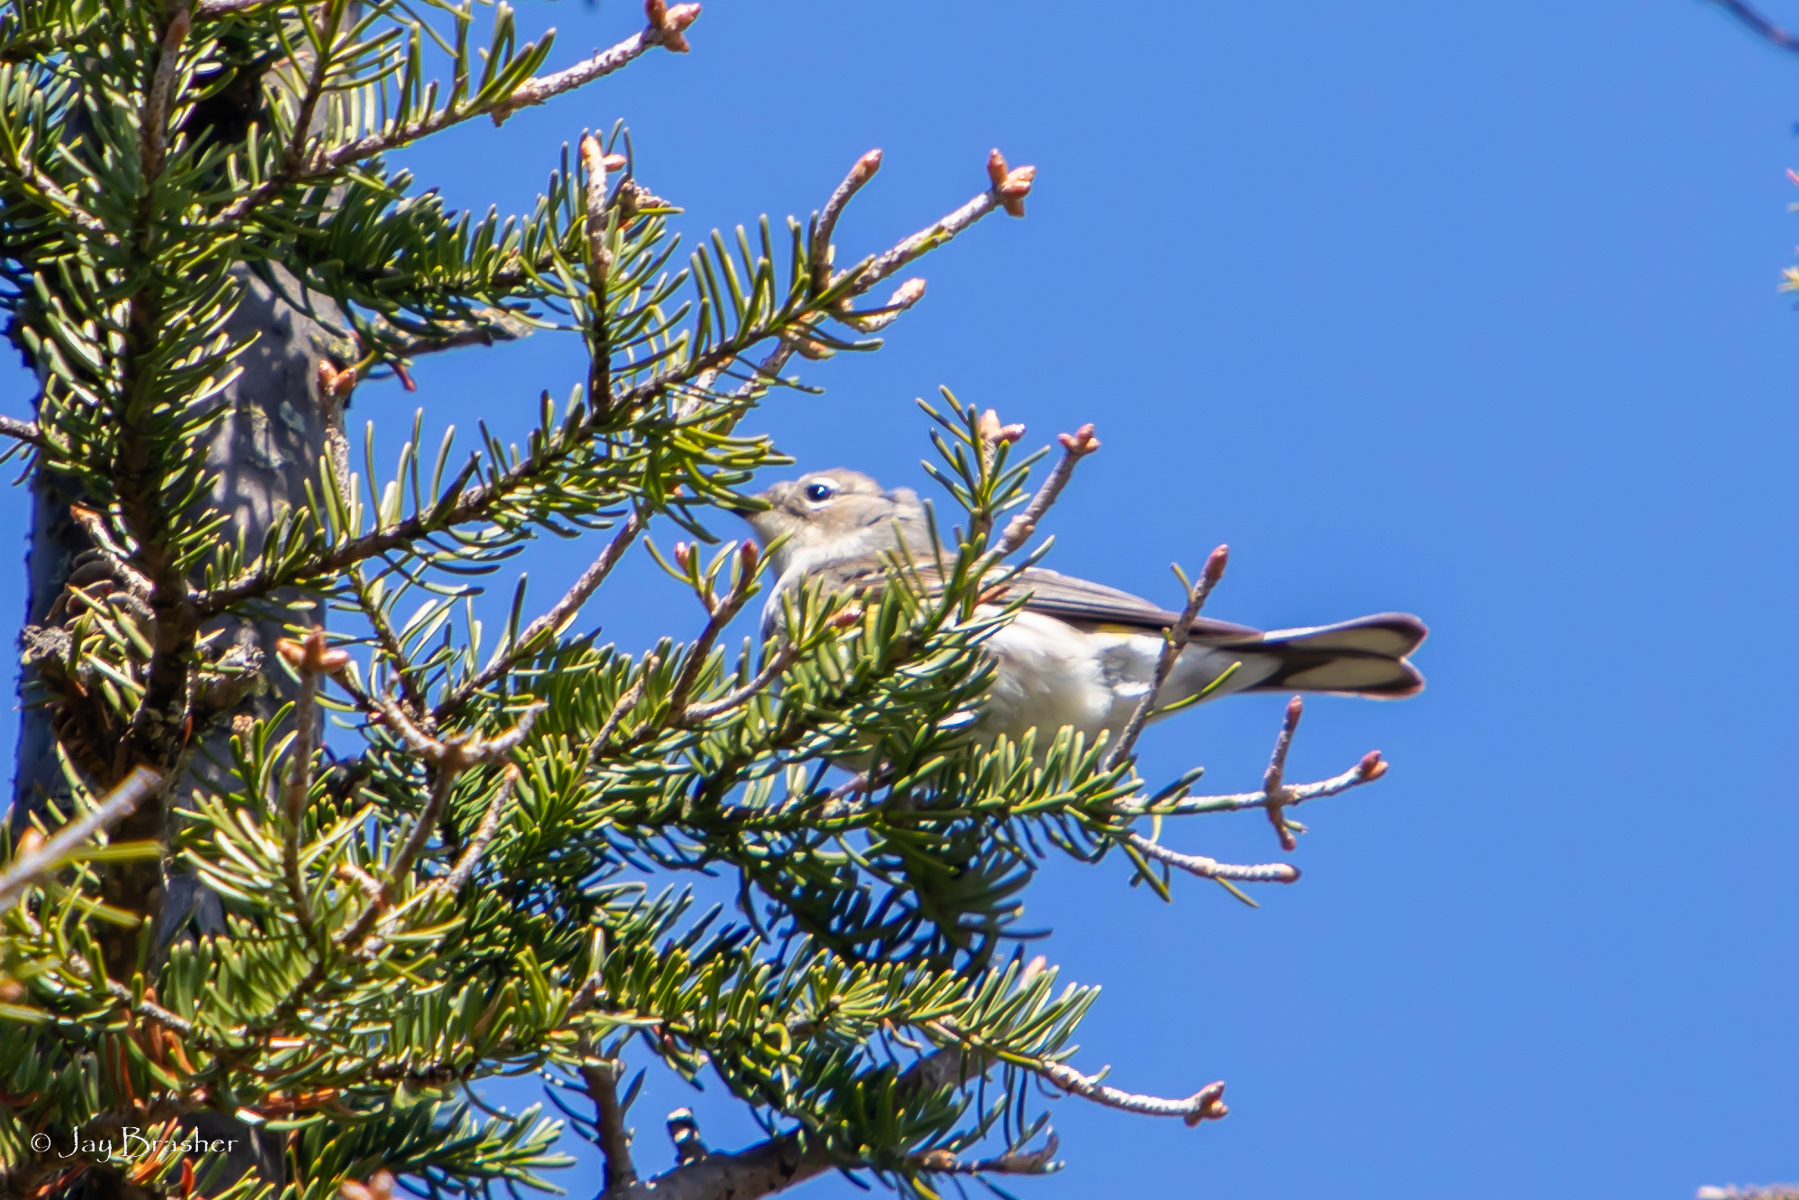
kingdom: Animalia
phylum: Chordata
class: Aves
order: Passeriformes
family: Parulidae
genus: Setophaga
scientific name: Setophaga coronata
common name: Myrtle warbler
